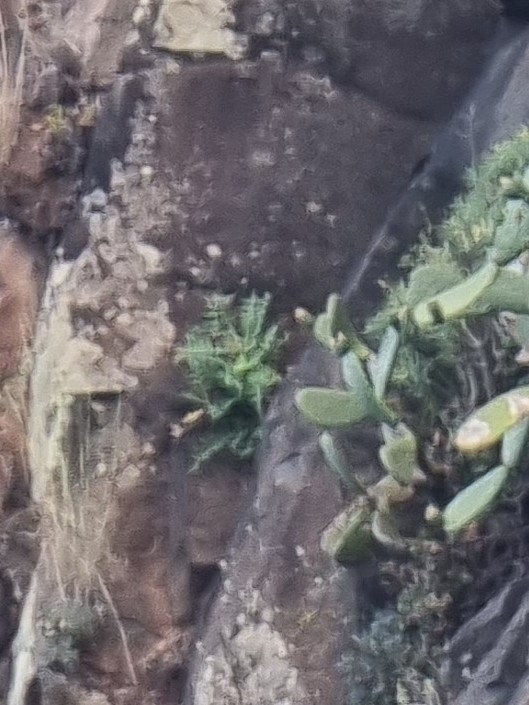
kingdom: Plantae
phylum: Tracheophyta
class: Magnoliopsida
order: Asterales
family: Asteraceae
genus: Sonchus
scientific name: Sonchus ustulatus
